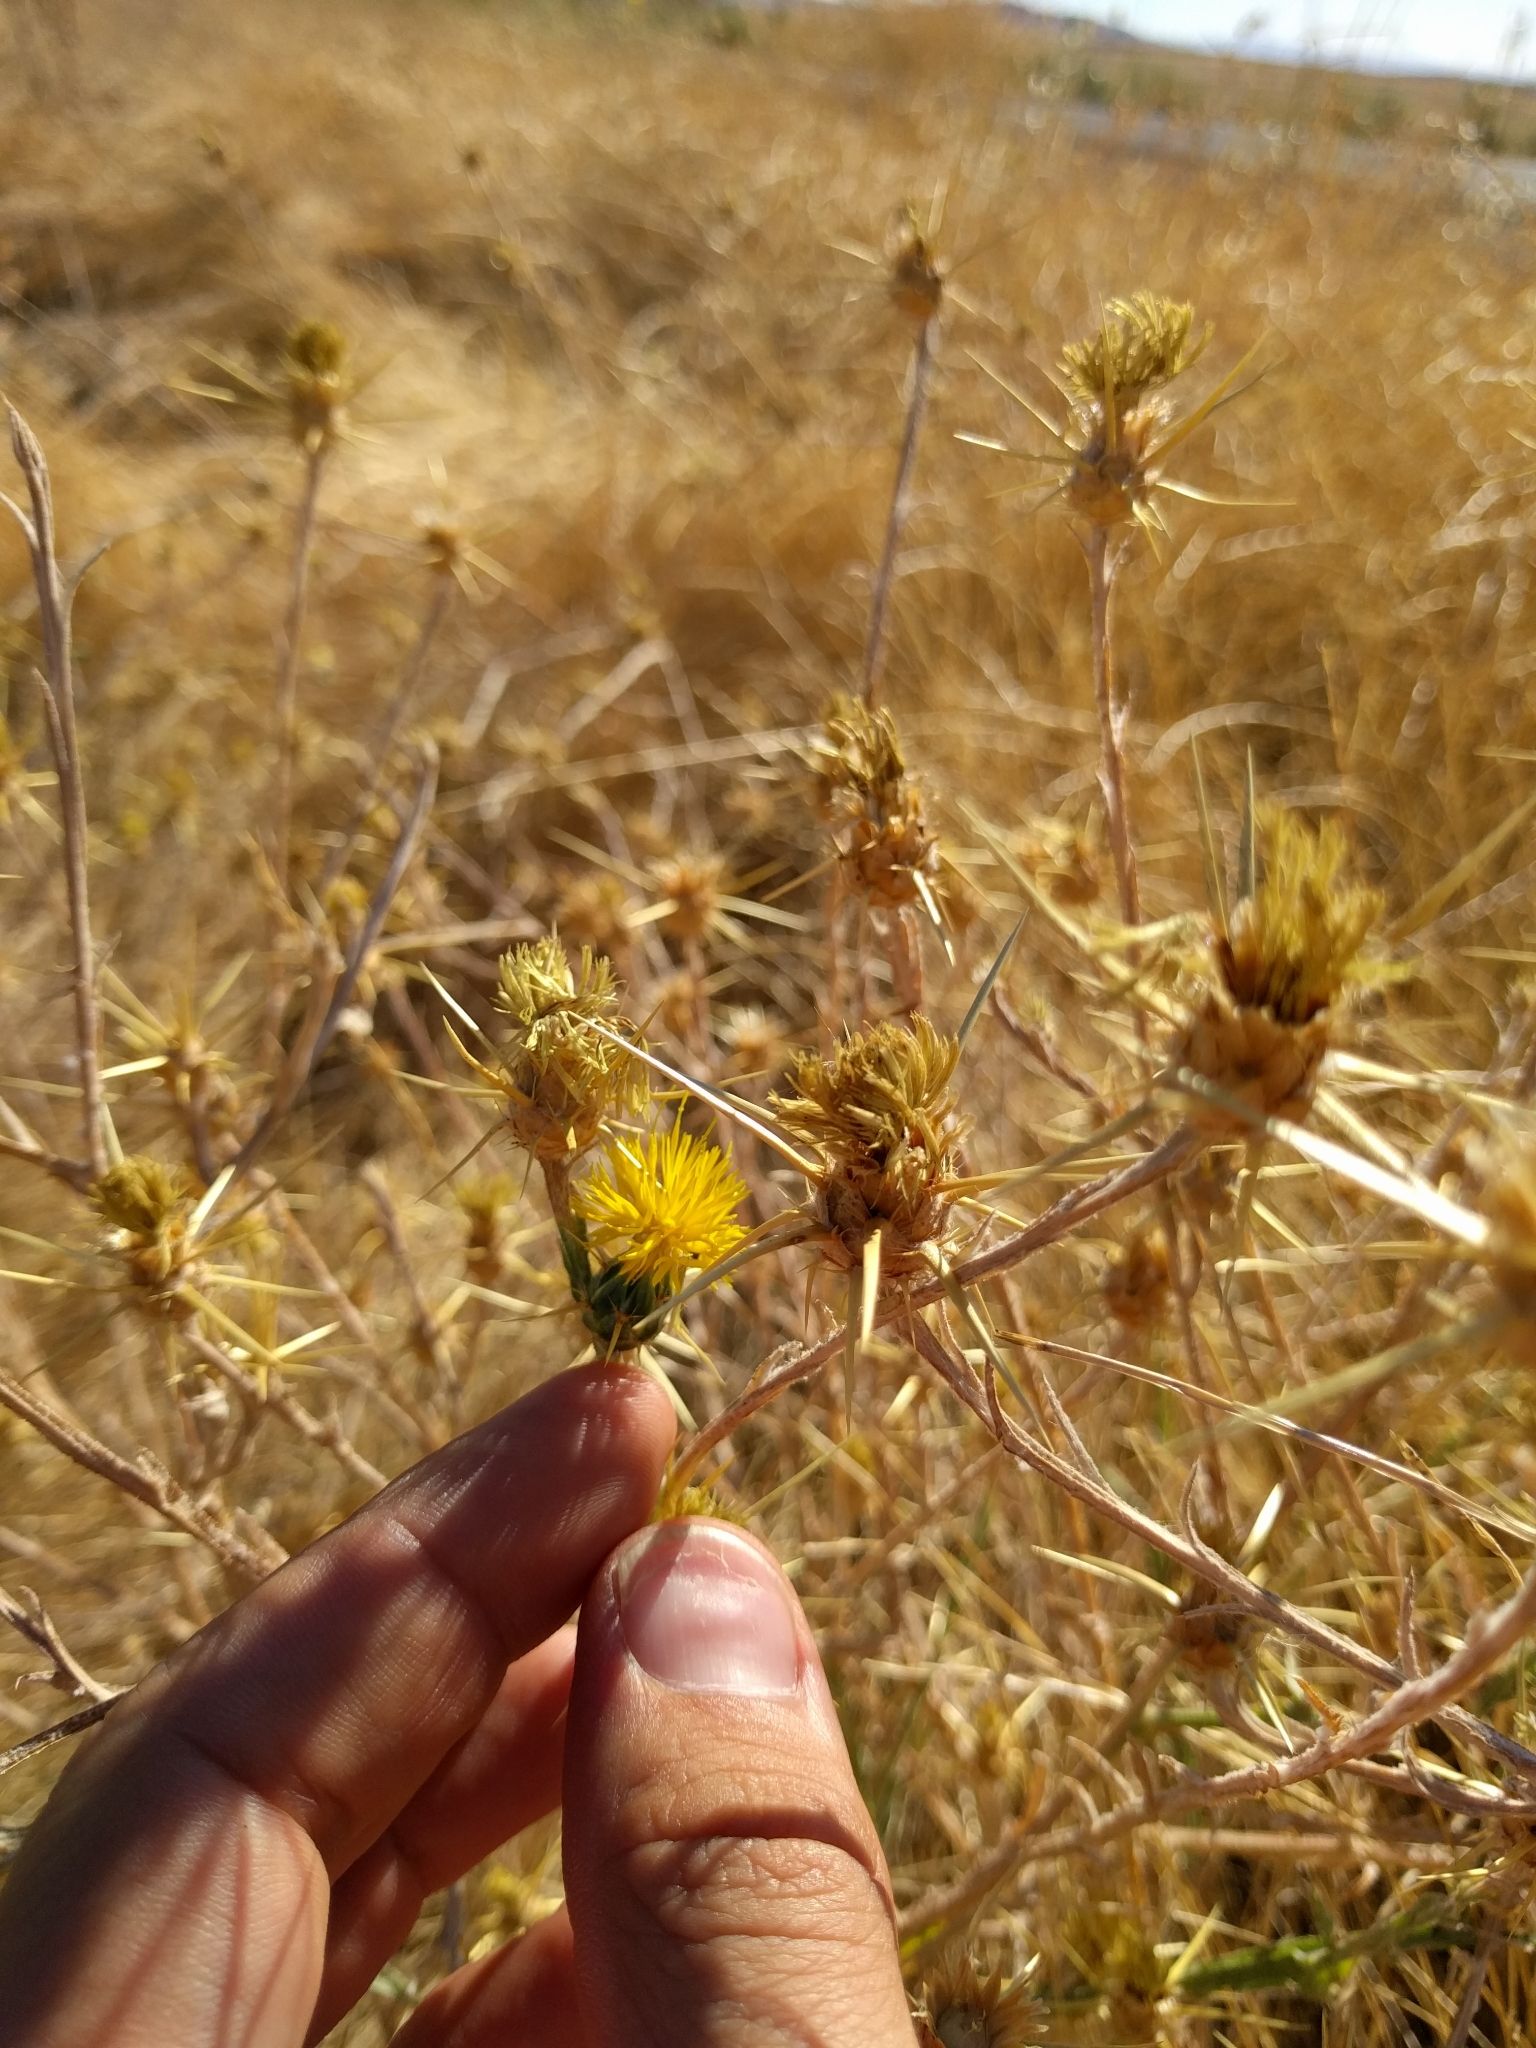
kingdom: Plantae
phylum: Tracheophyta
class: Magnoliopsida
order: Asterales
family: Asteraceae
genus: Centaurea
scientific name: Centaurea solstitialis
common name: Yellow star-thistle
